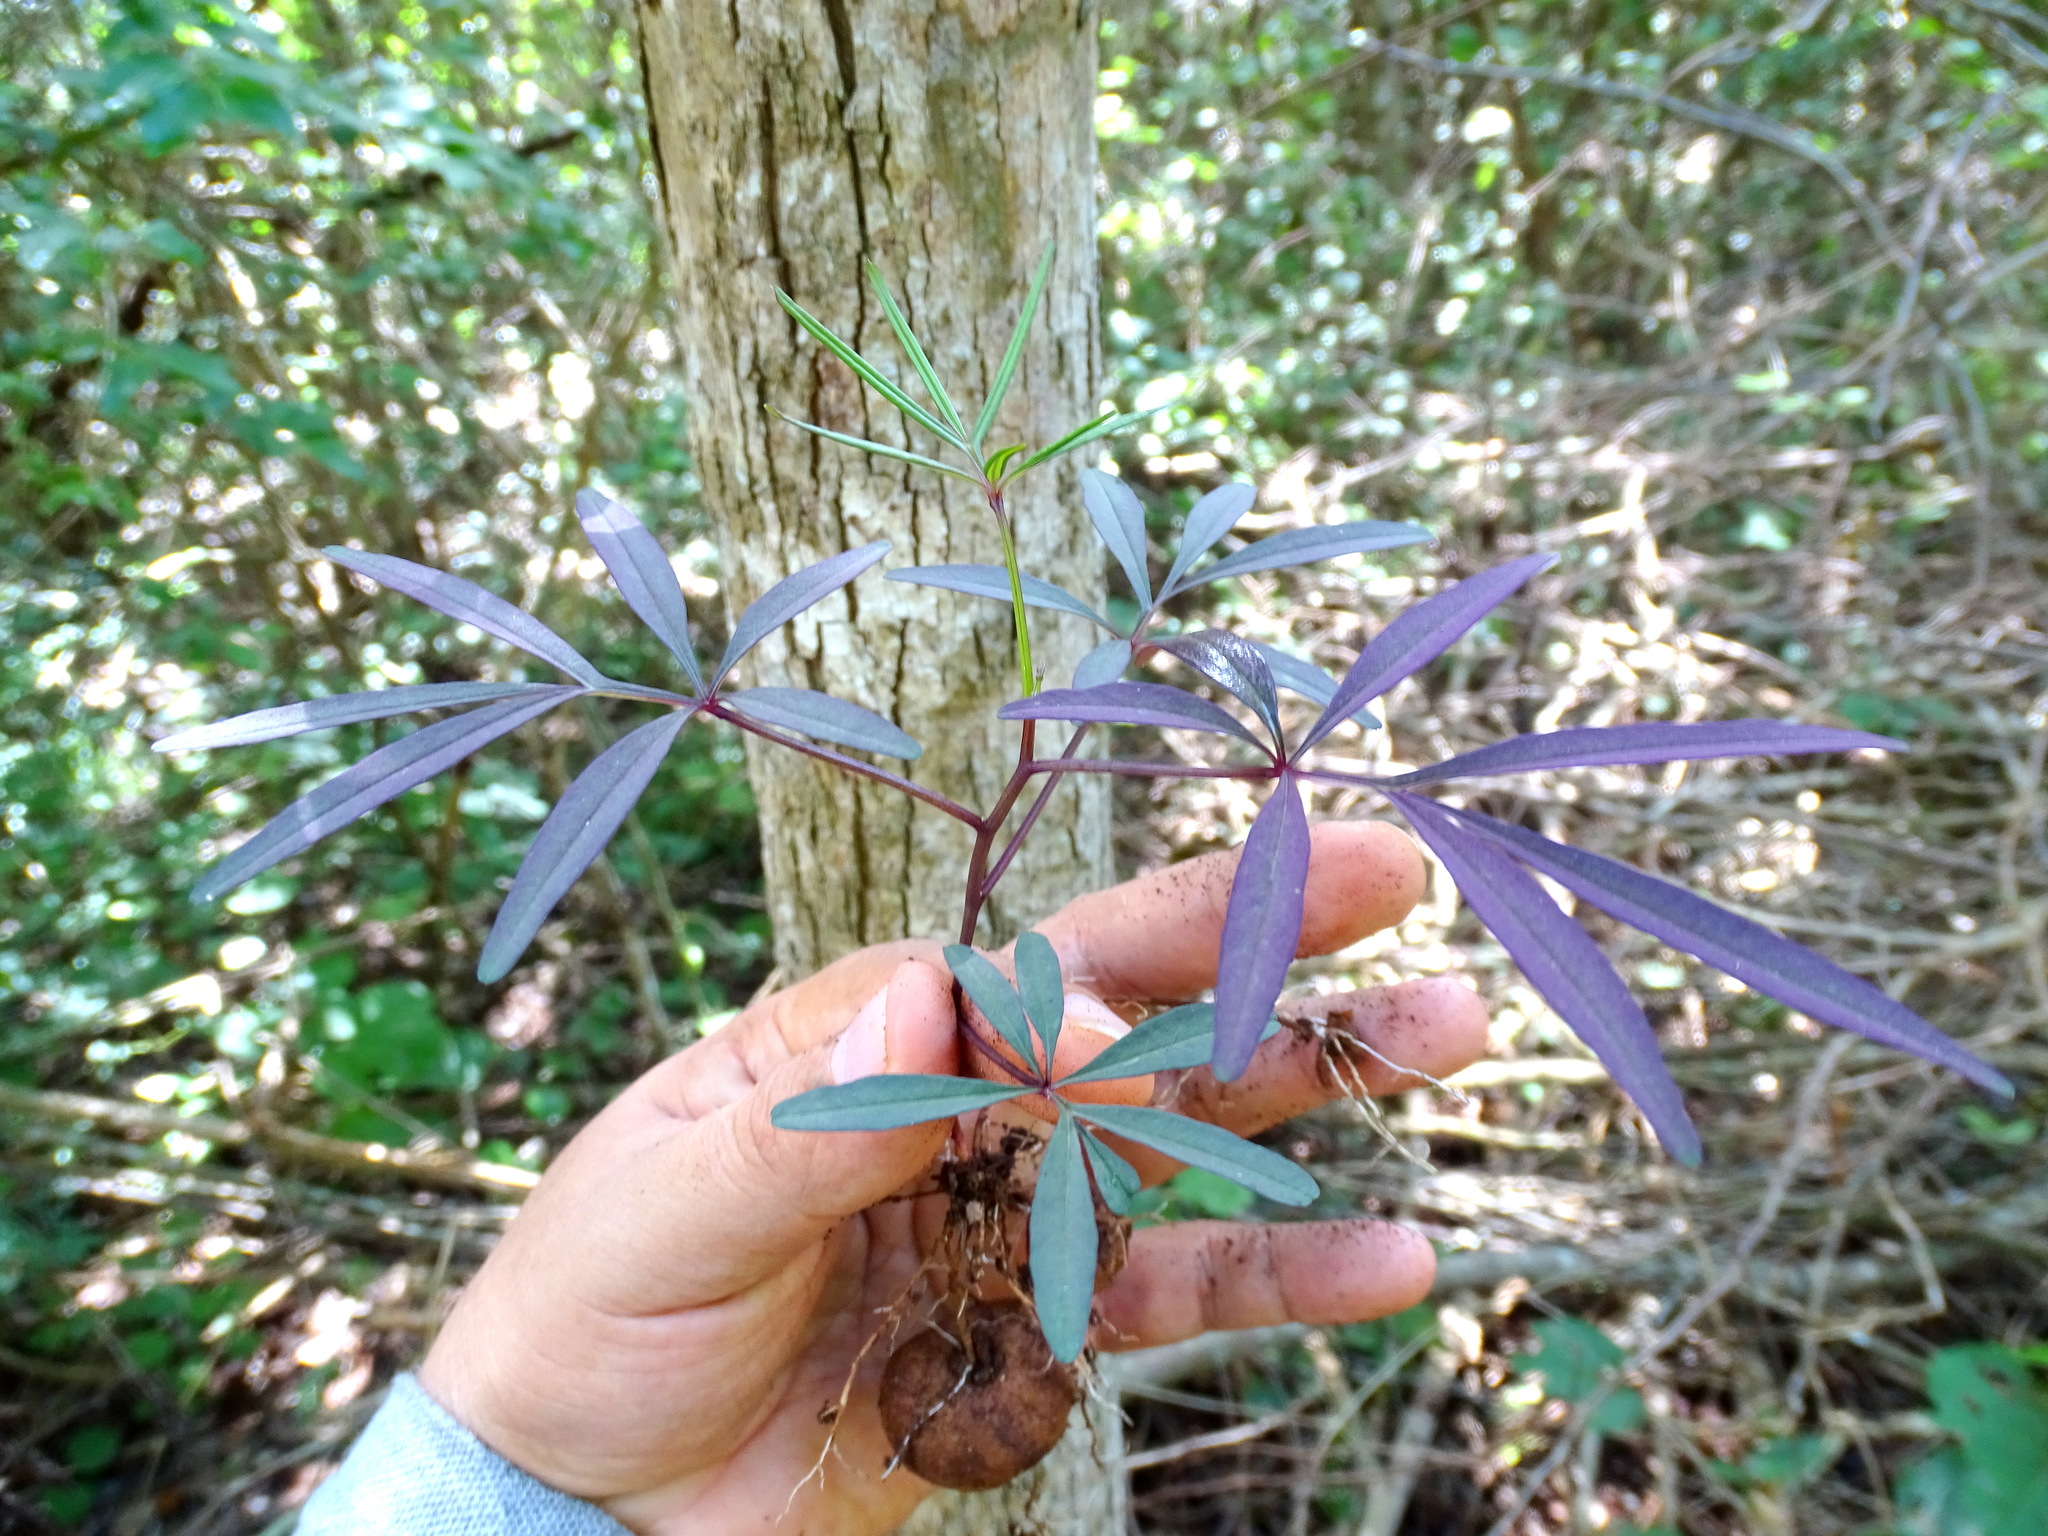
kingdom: Plantae
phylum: Tracheophyta
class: Magnoliopsida
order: Solanales
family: Convolvulaceae
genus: Ipomoea
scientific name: Ipomoea heterodoxa
